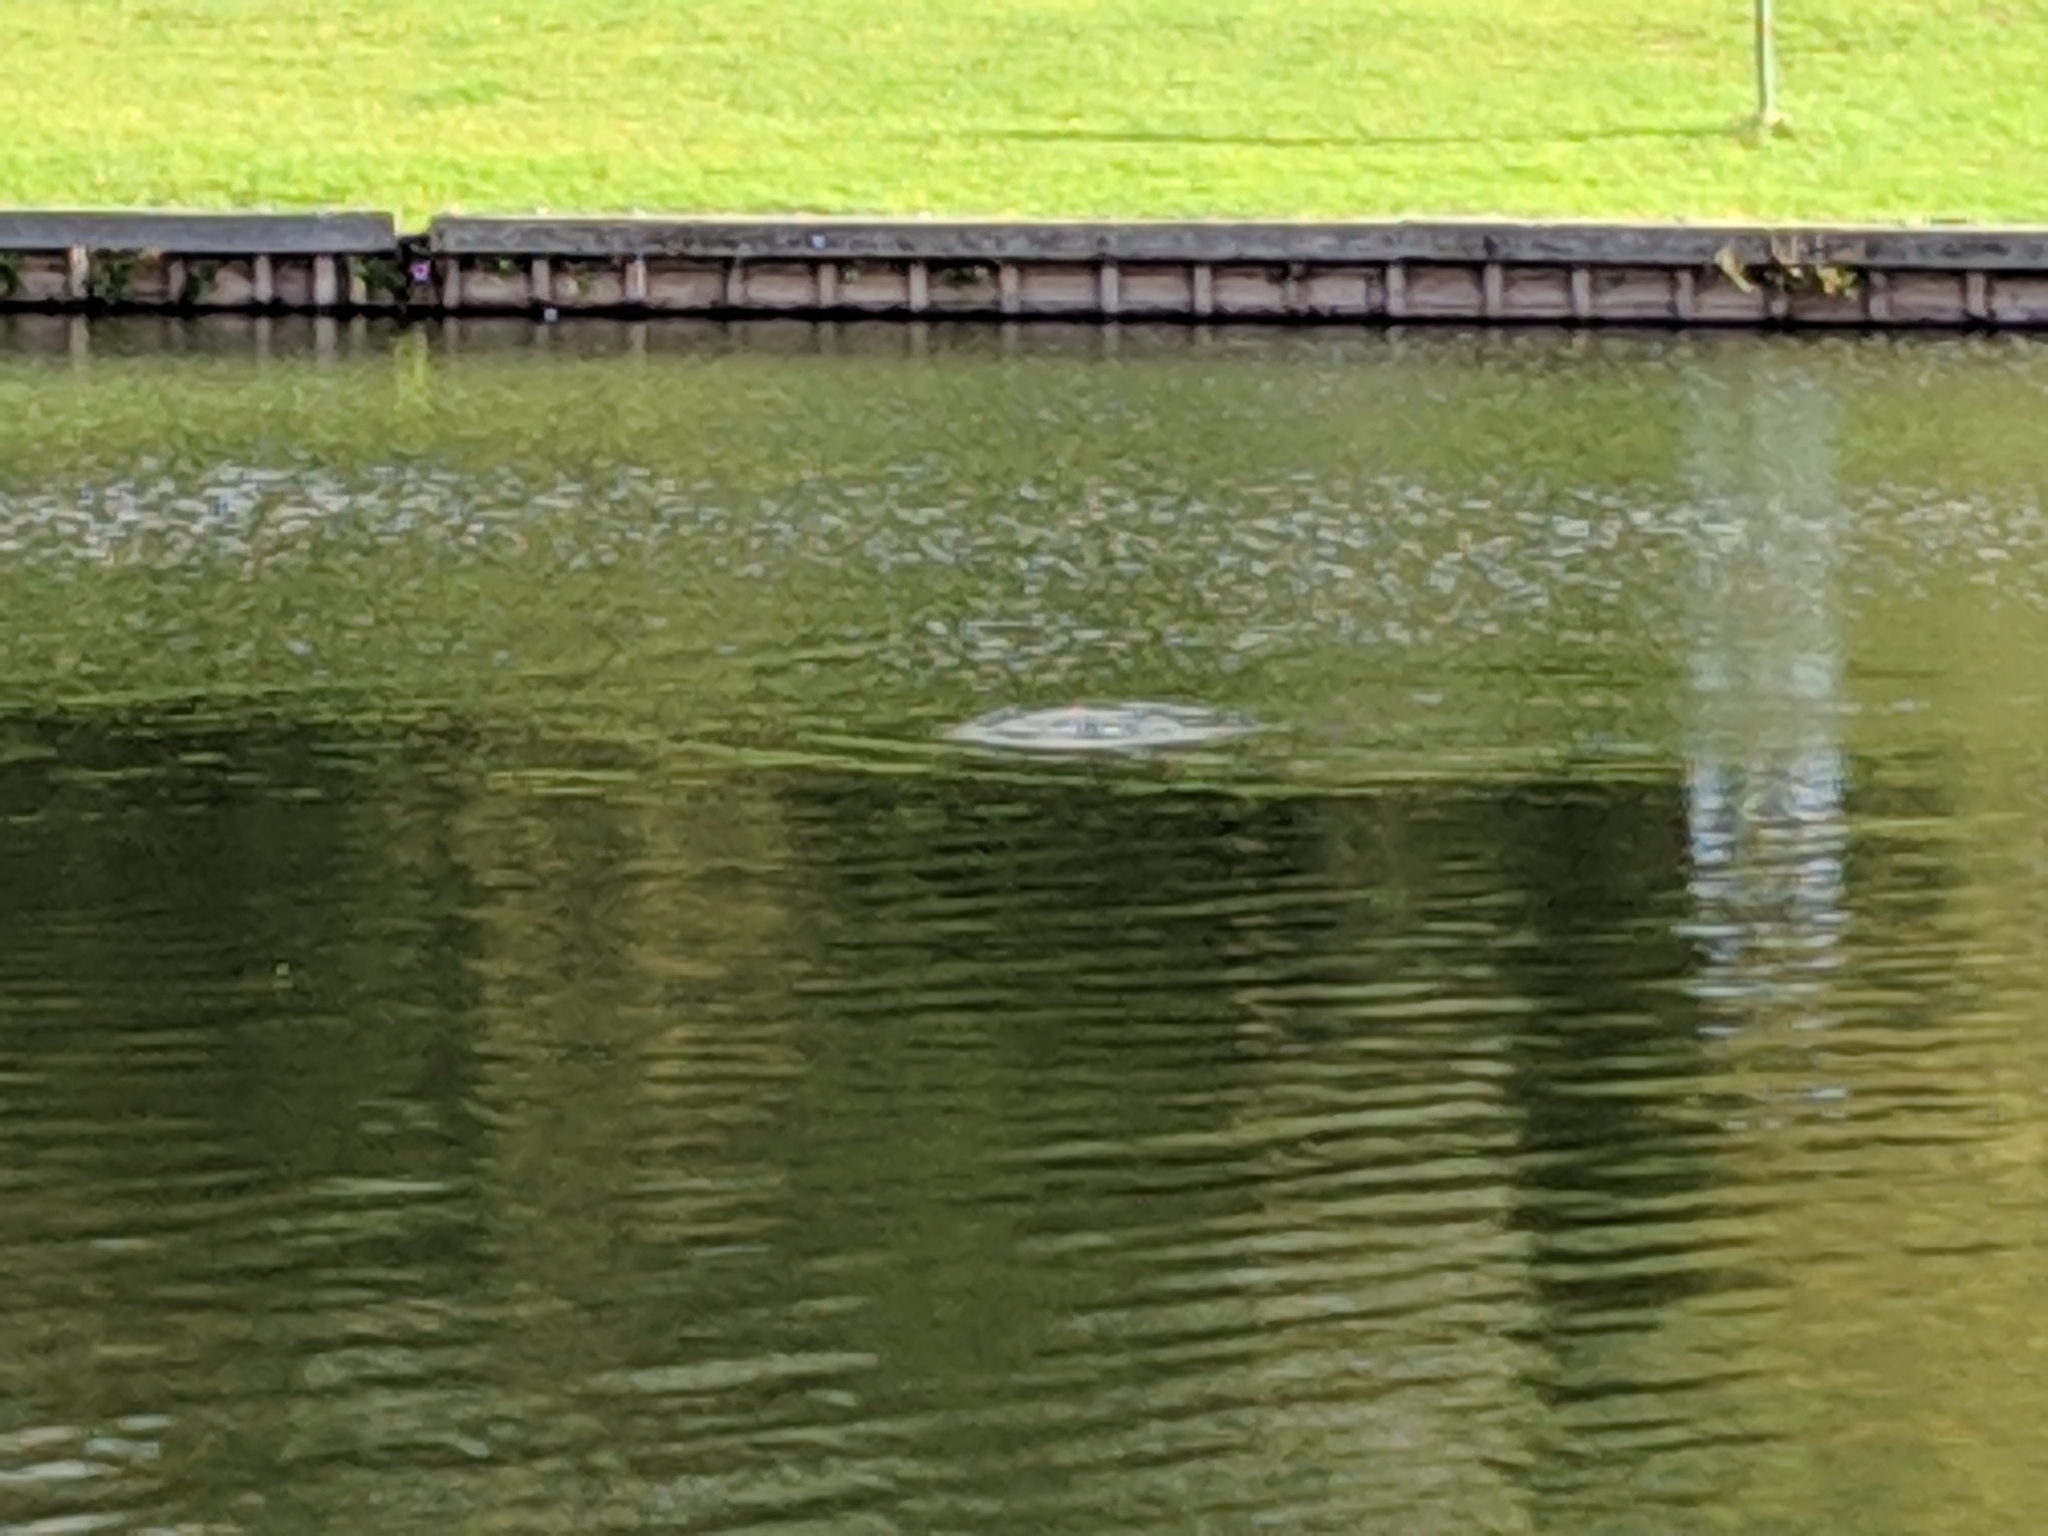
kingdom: Animalia
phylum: Chordata
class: Aves
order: Suliformes
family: Phalacrocoracidae
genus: Phalacrocorax
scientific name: Phalacrocorax carbo
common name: Great cormorant
